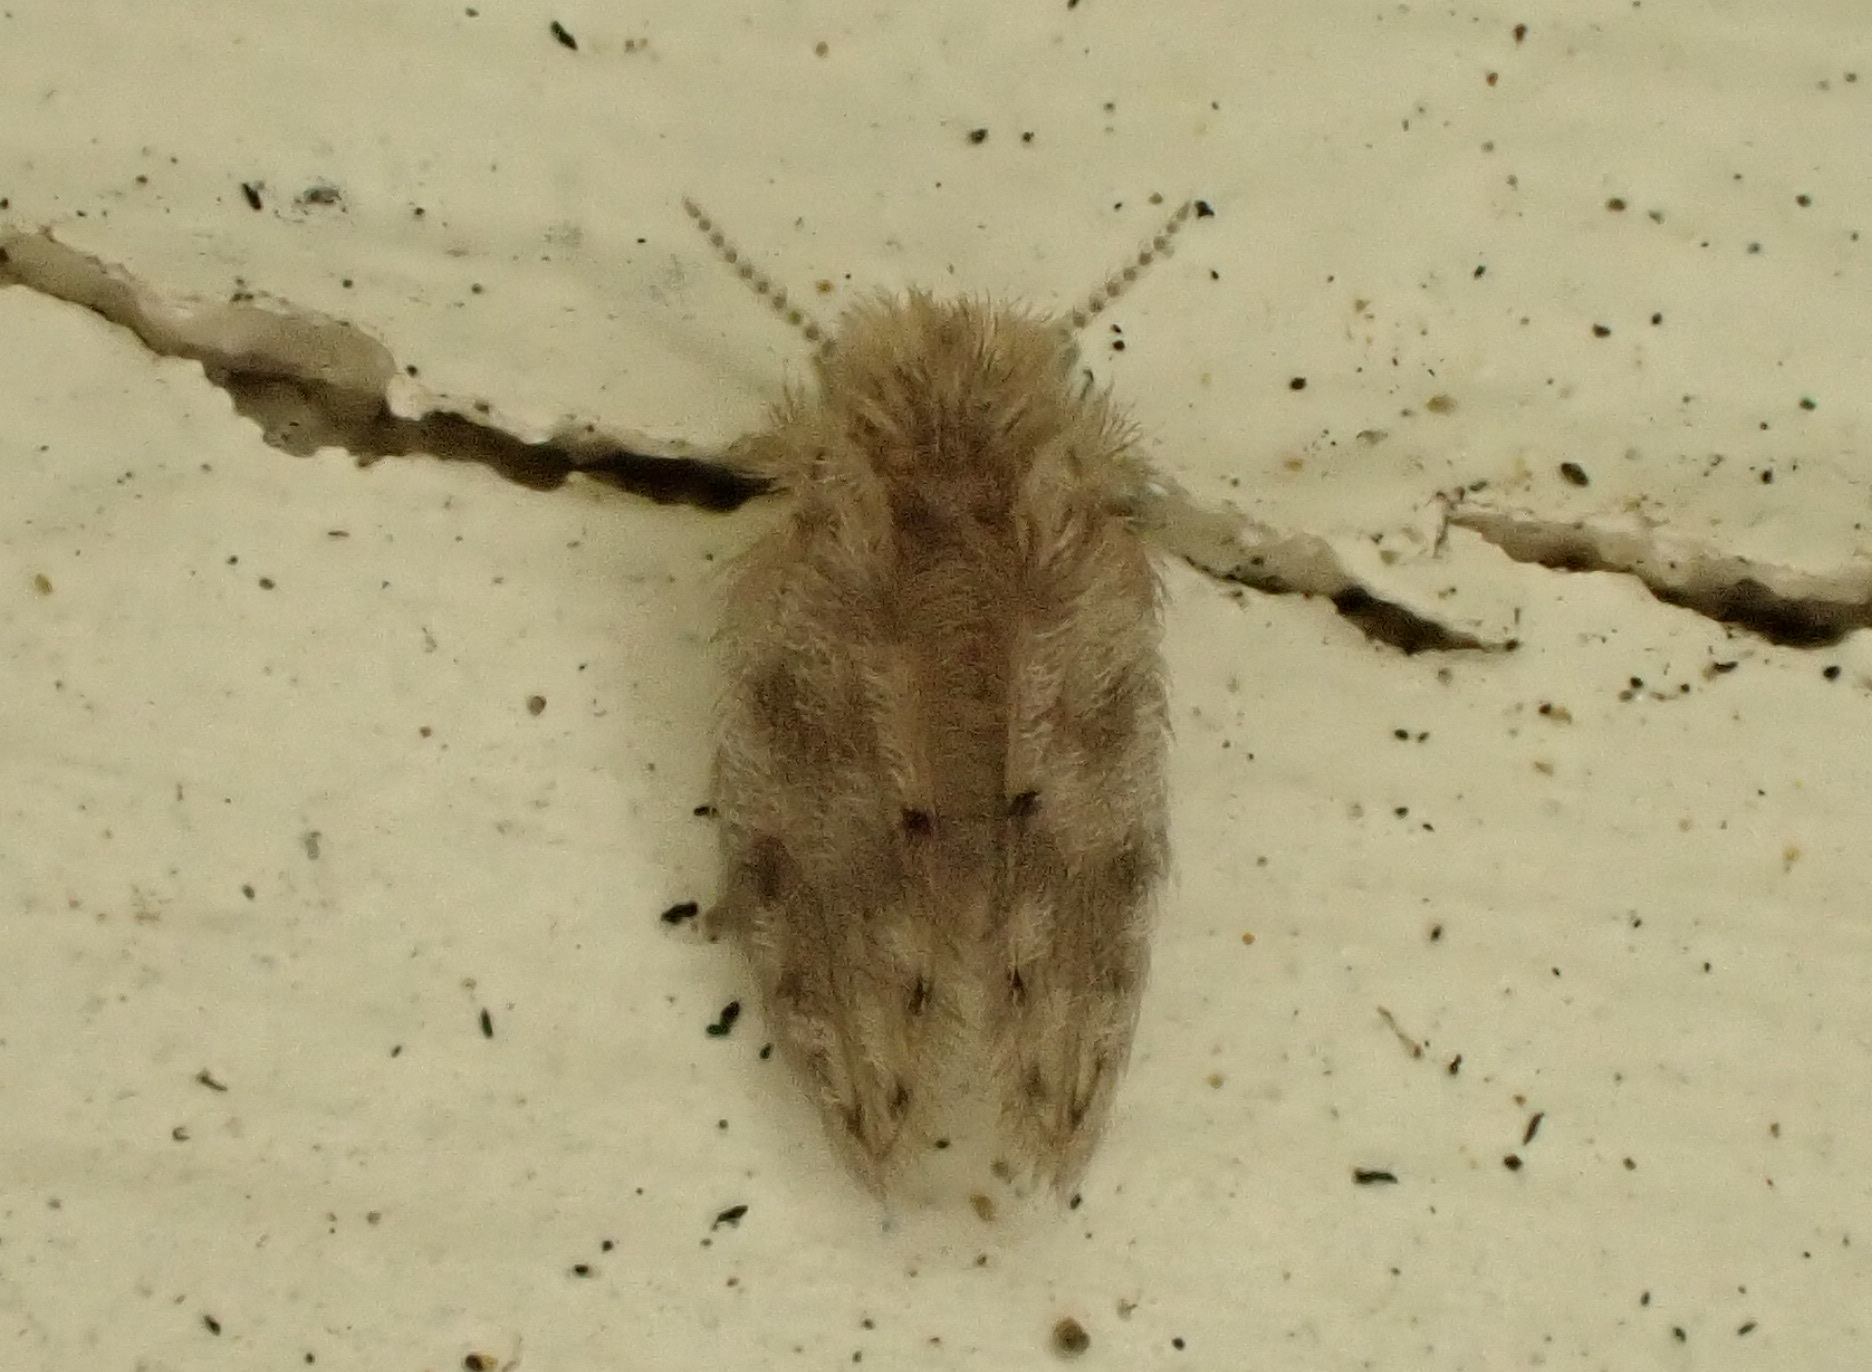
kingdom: Animalia
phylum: Arthropoda
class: Insecta
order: Diptera
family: Psychodidae
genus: Psychoda
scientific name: Psychoda alternata
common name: Moth fly
